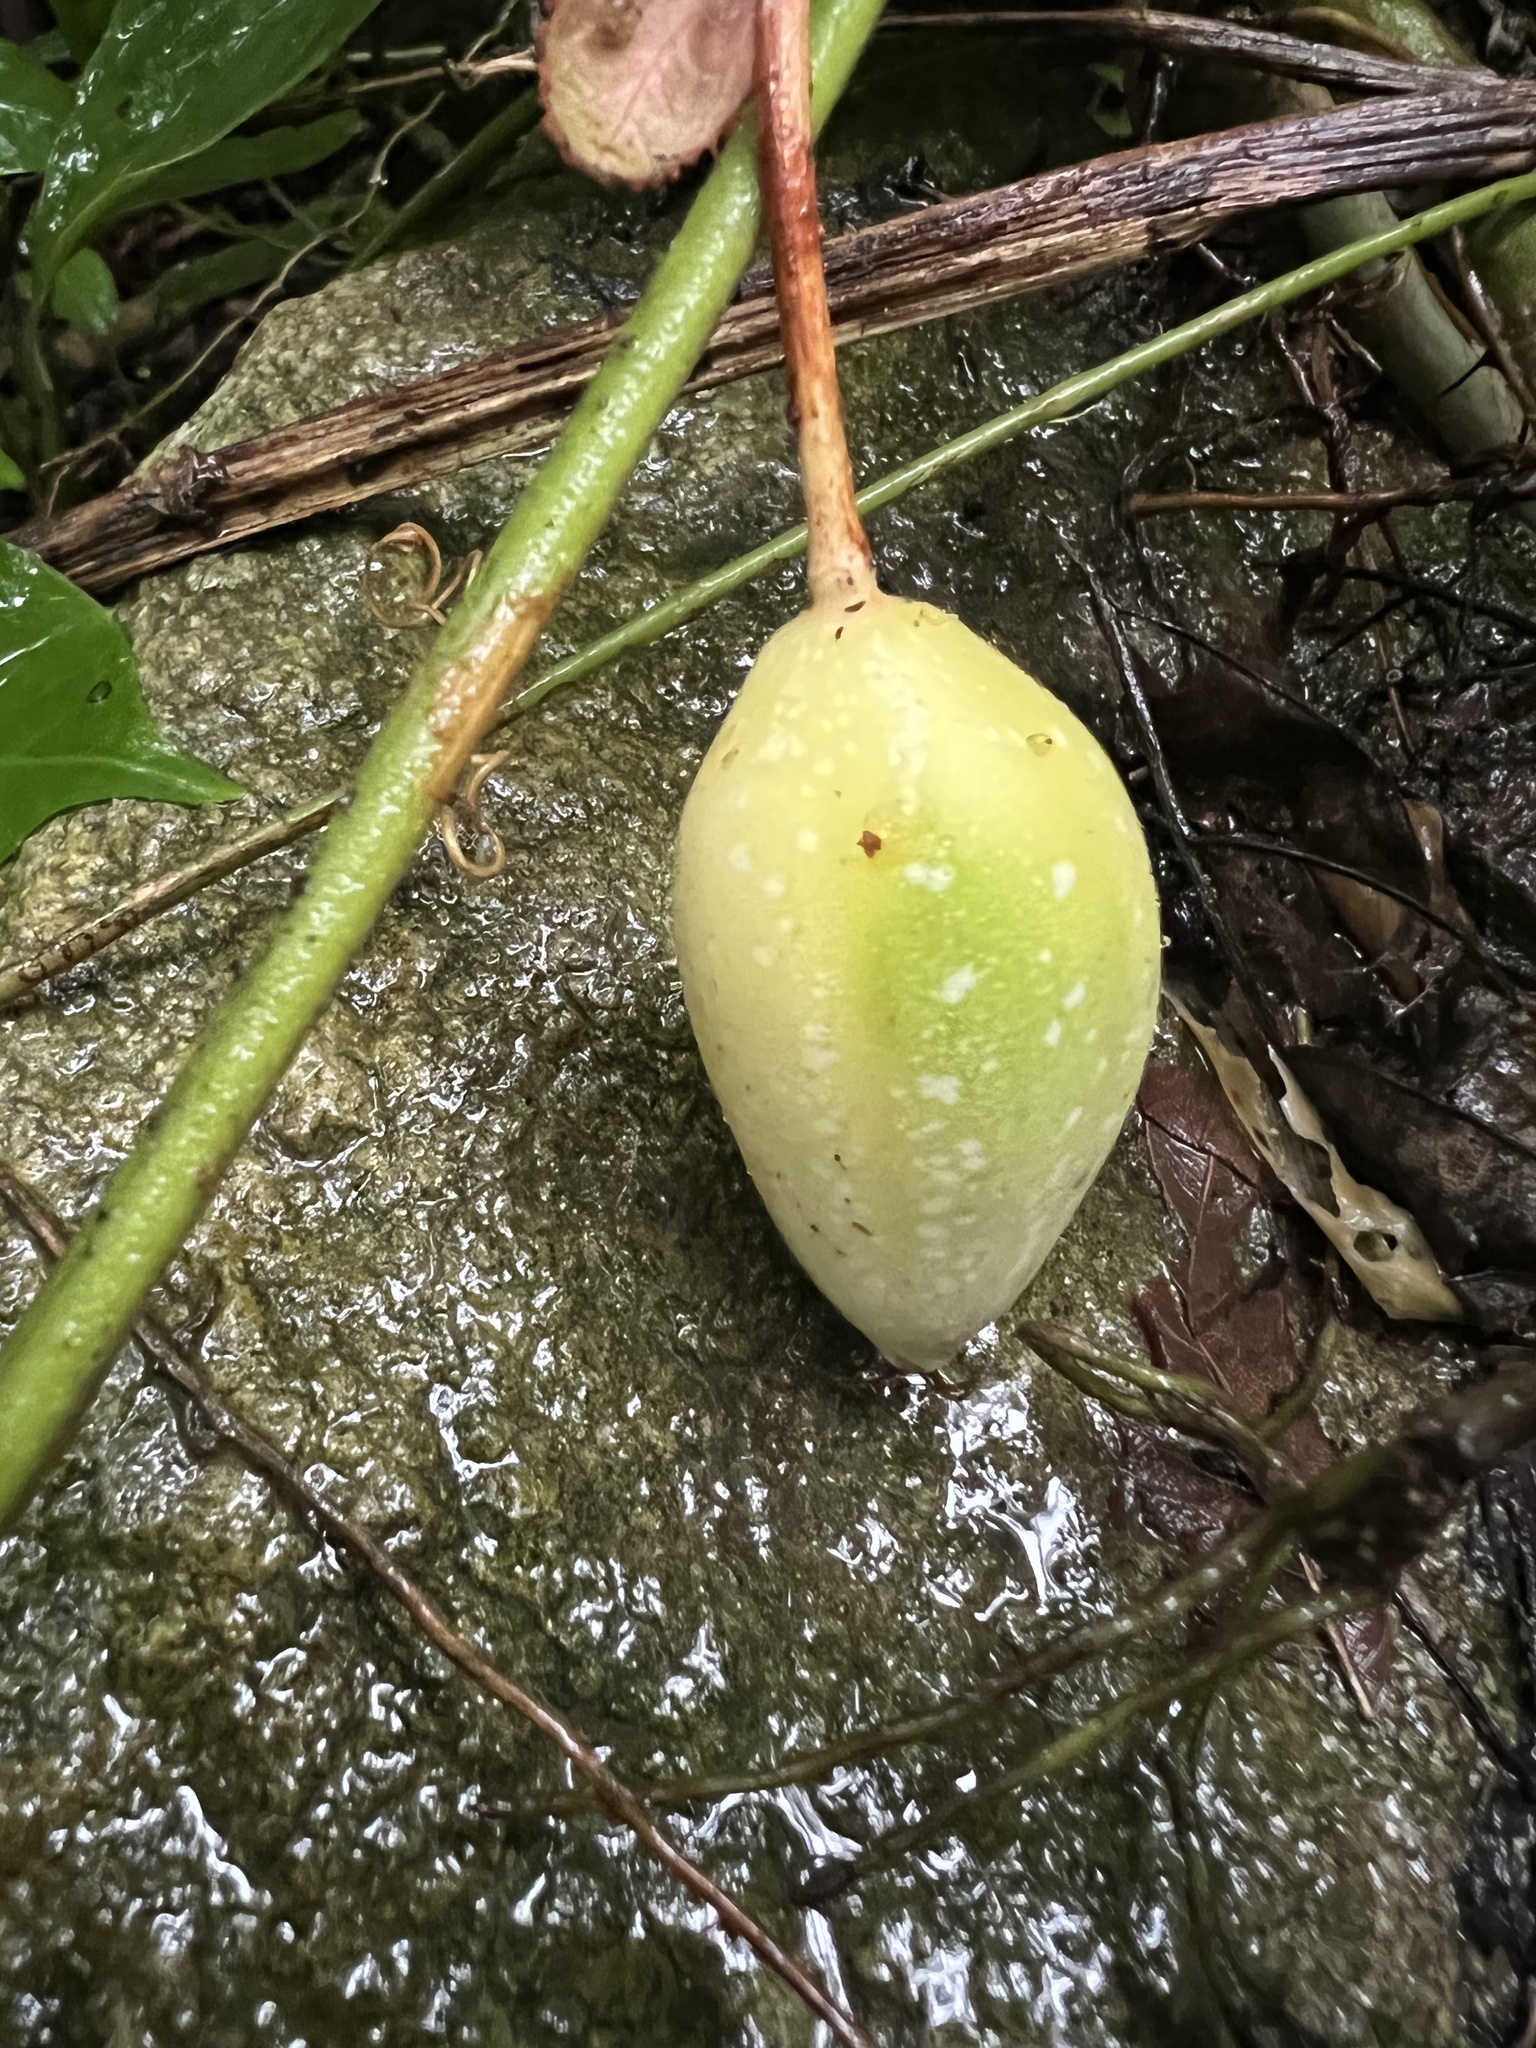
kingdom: Plantae
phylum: Tracheophyta
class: Magnoliopsida
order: Malpighiales
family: Passifloraceae
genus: Passiflora
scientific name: Passiflora vitifolia
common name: Perfumed passionflower
